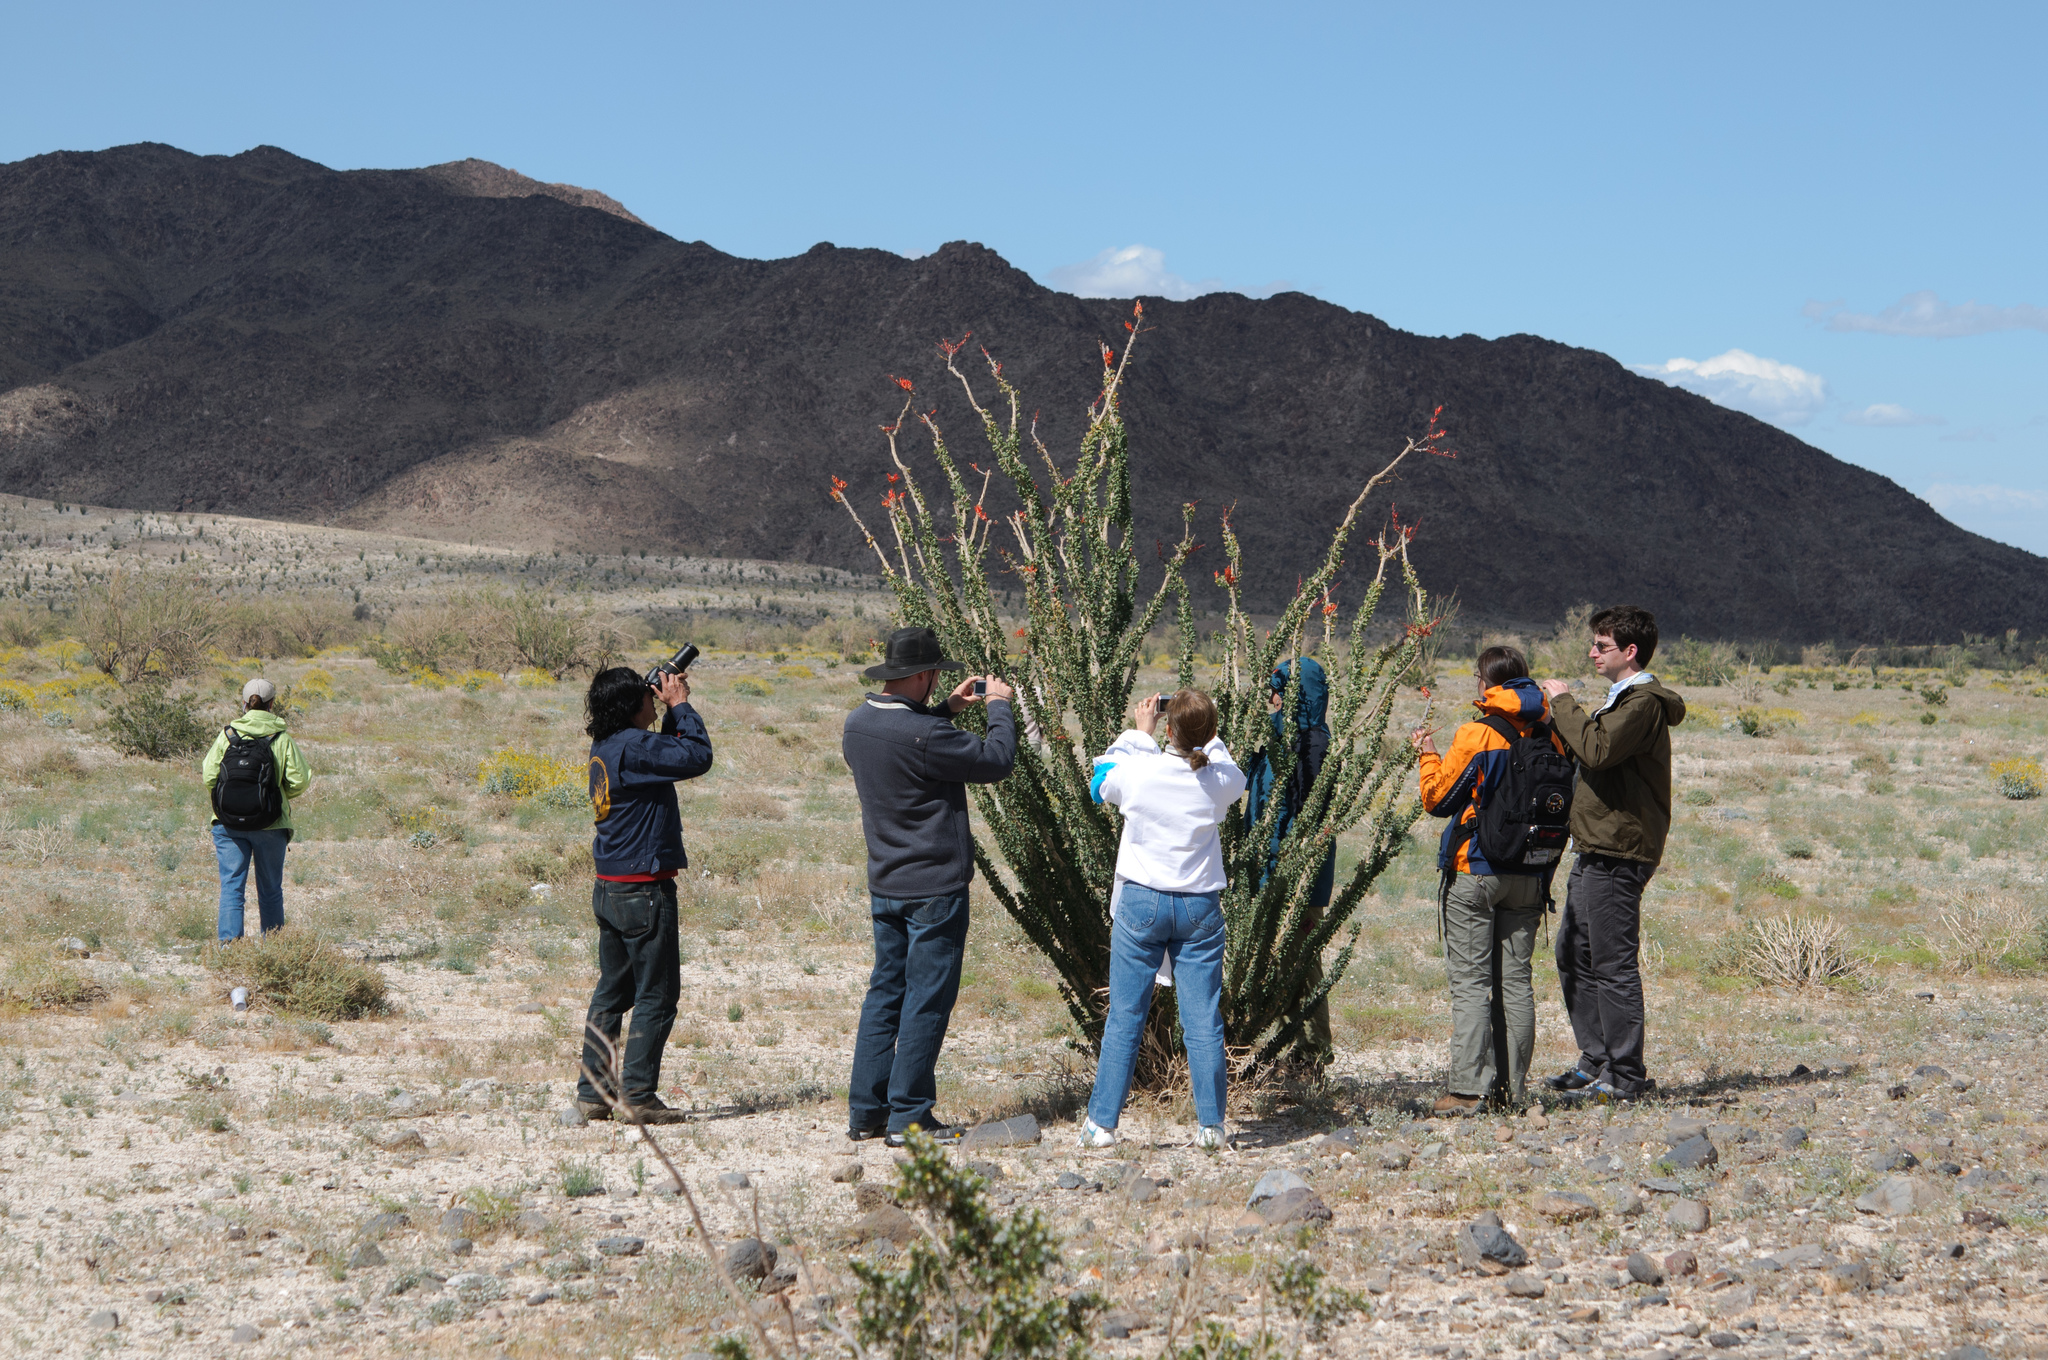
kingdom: Plantae
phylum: Tracheophyta
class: Magnoliopsida
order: Ericales
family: Fouquieriaceae
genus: Fouquieria
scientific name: Fouquieria splendens
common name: Vine-cactus
